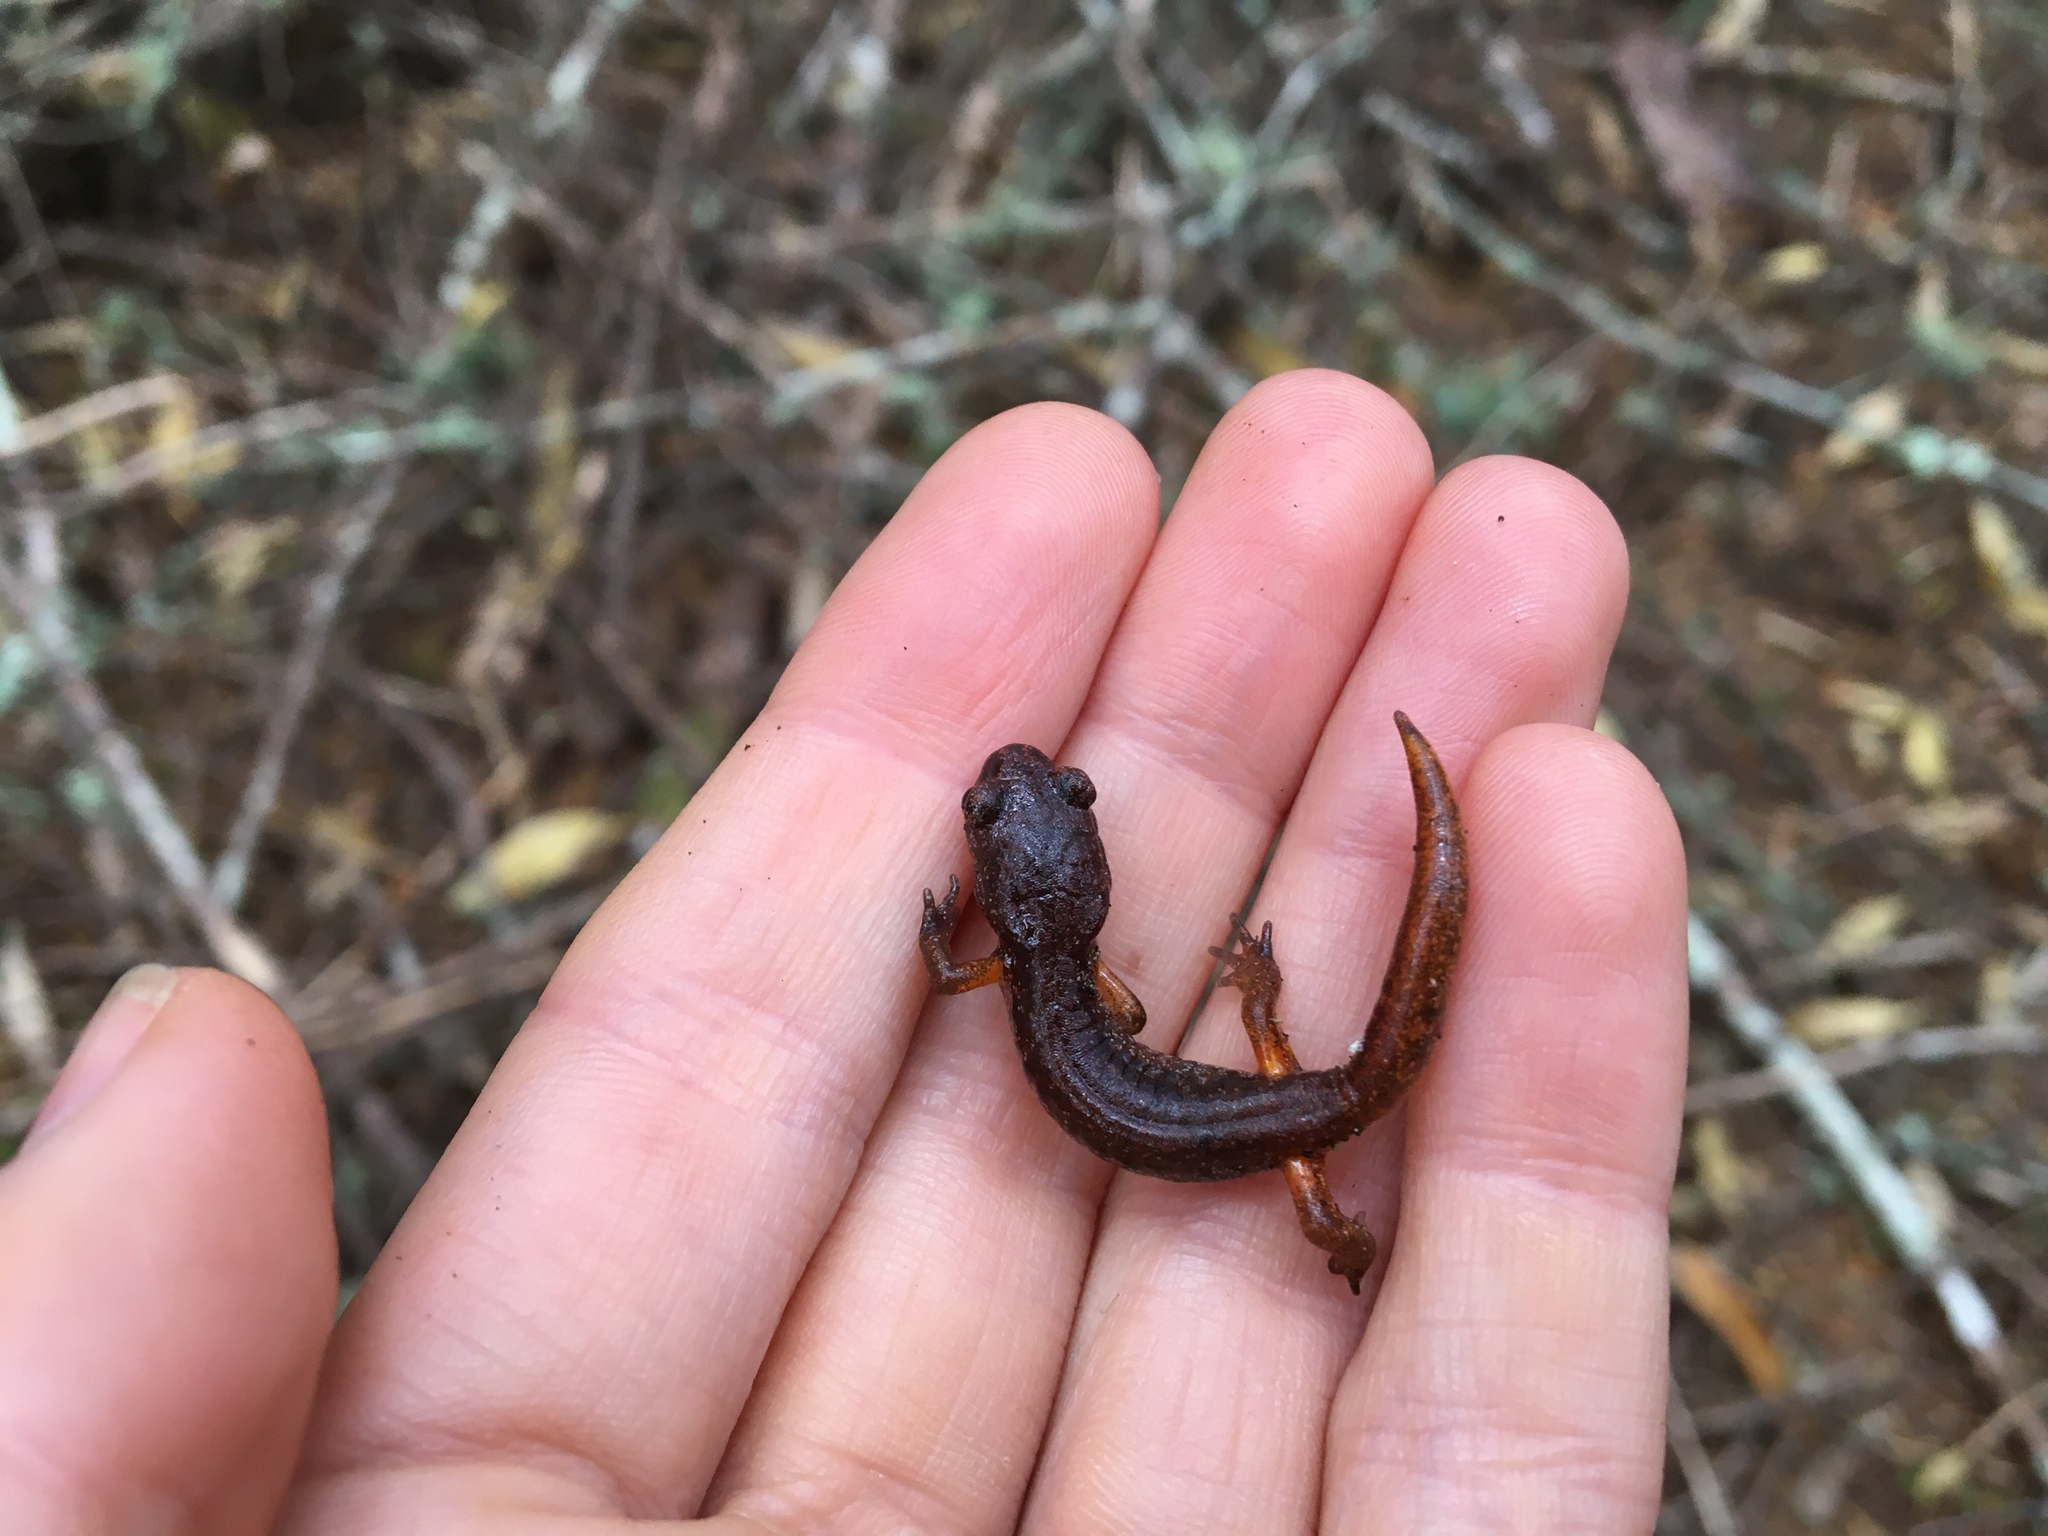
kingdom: Animalia
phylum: Chordata
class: Amphibia
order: Caudata
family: Plethodontidae
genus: Ensatina
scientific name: Ensatina eschscholtzii
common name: Ensatina
